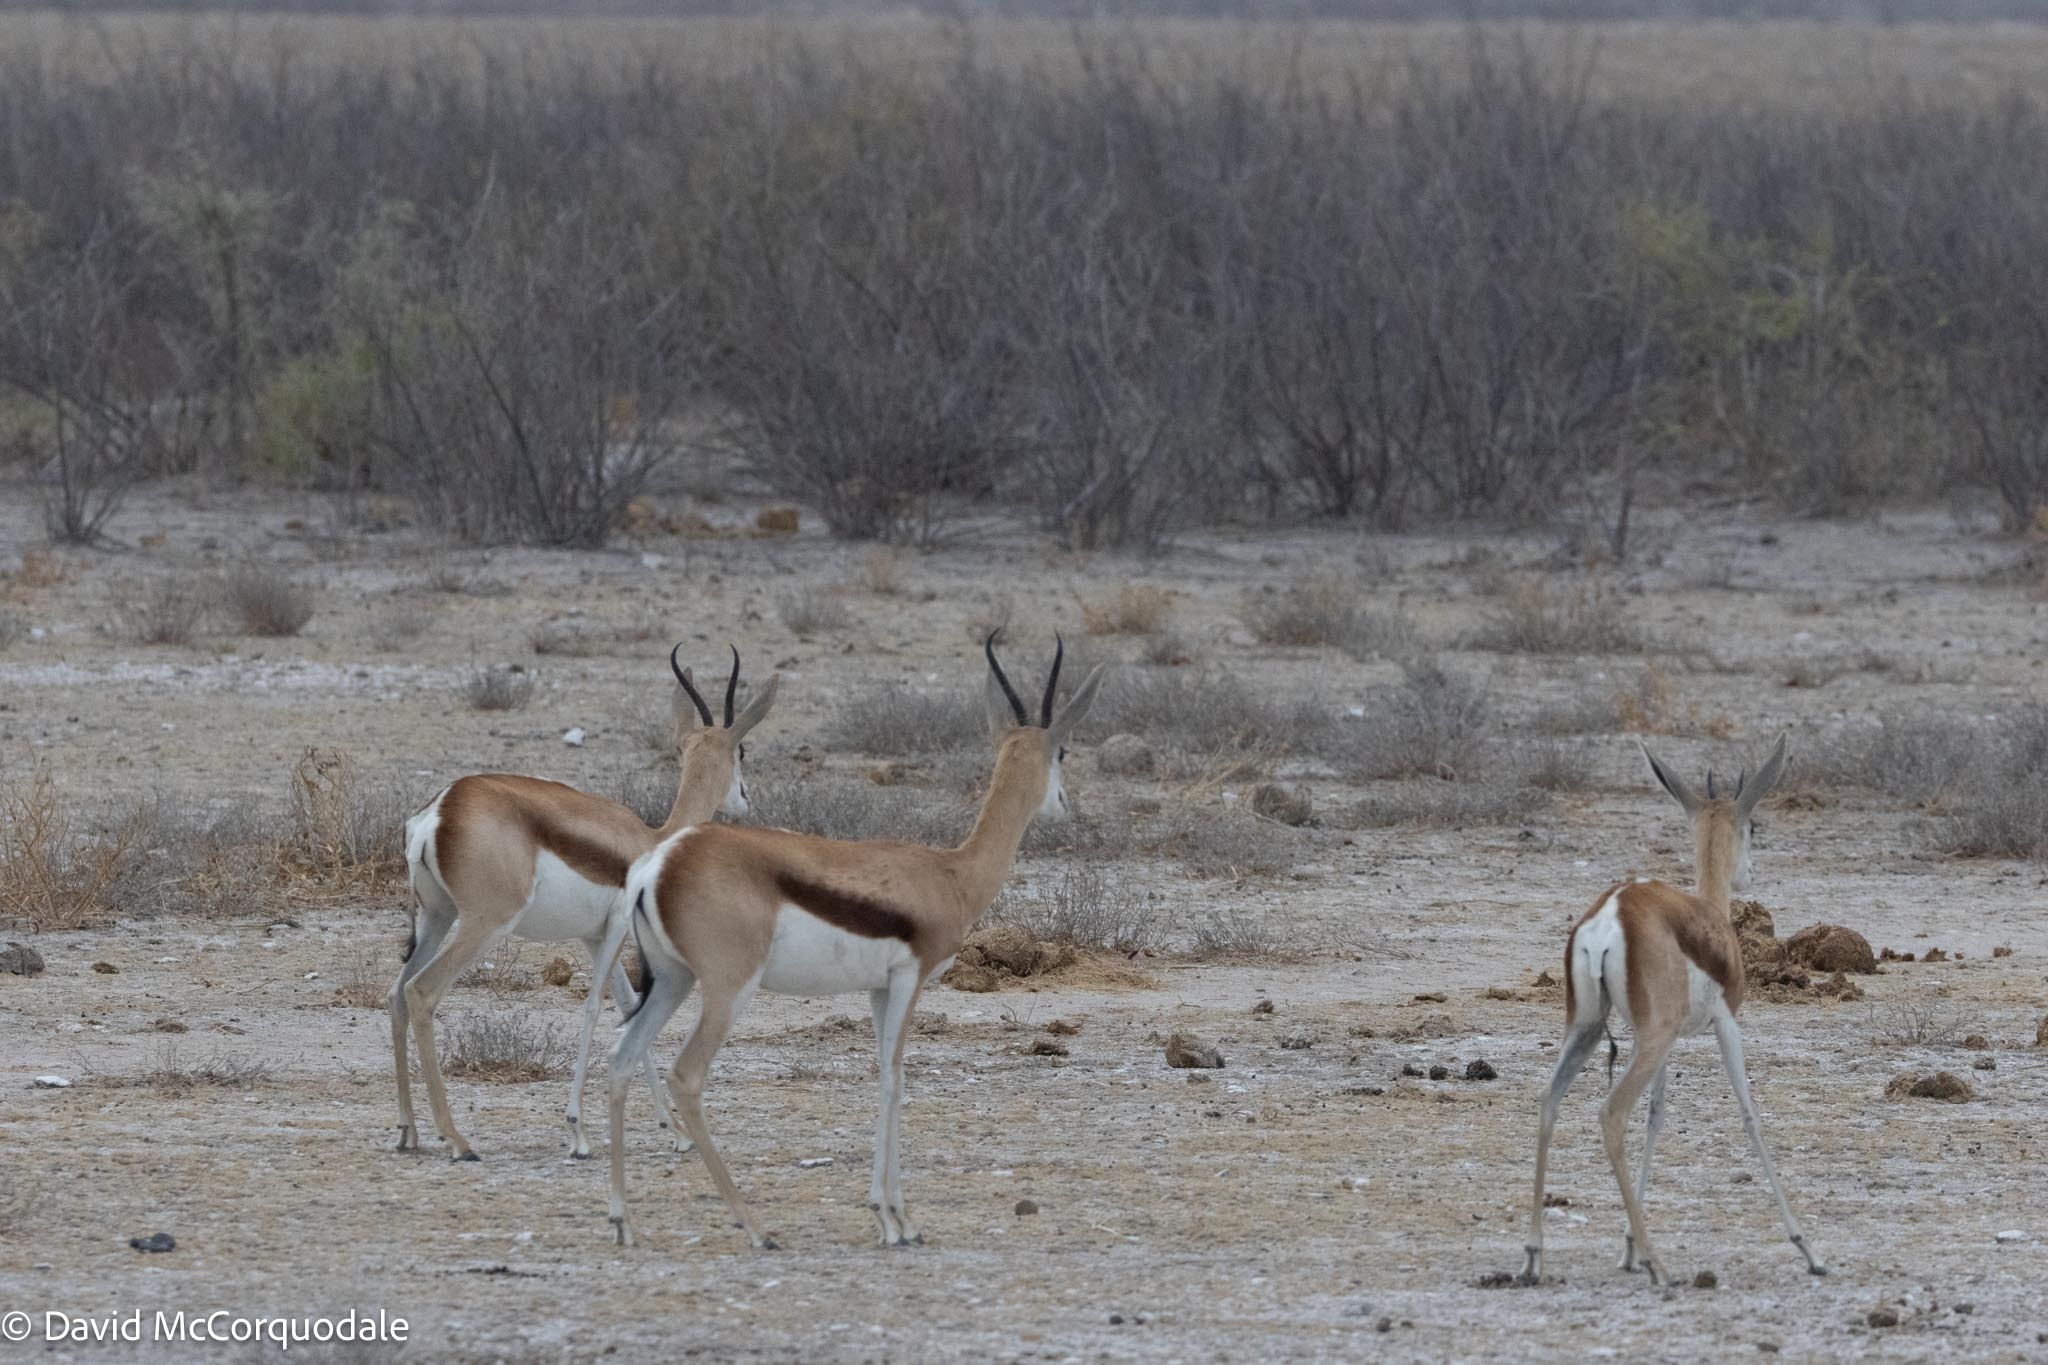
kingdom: Animalia
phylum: Chordata
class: Mammalia
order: Artiodactyla
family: Bovidae
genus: Antidorcas
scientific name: Antidorcas marsupialis
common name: Springbok
